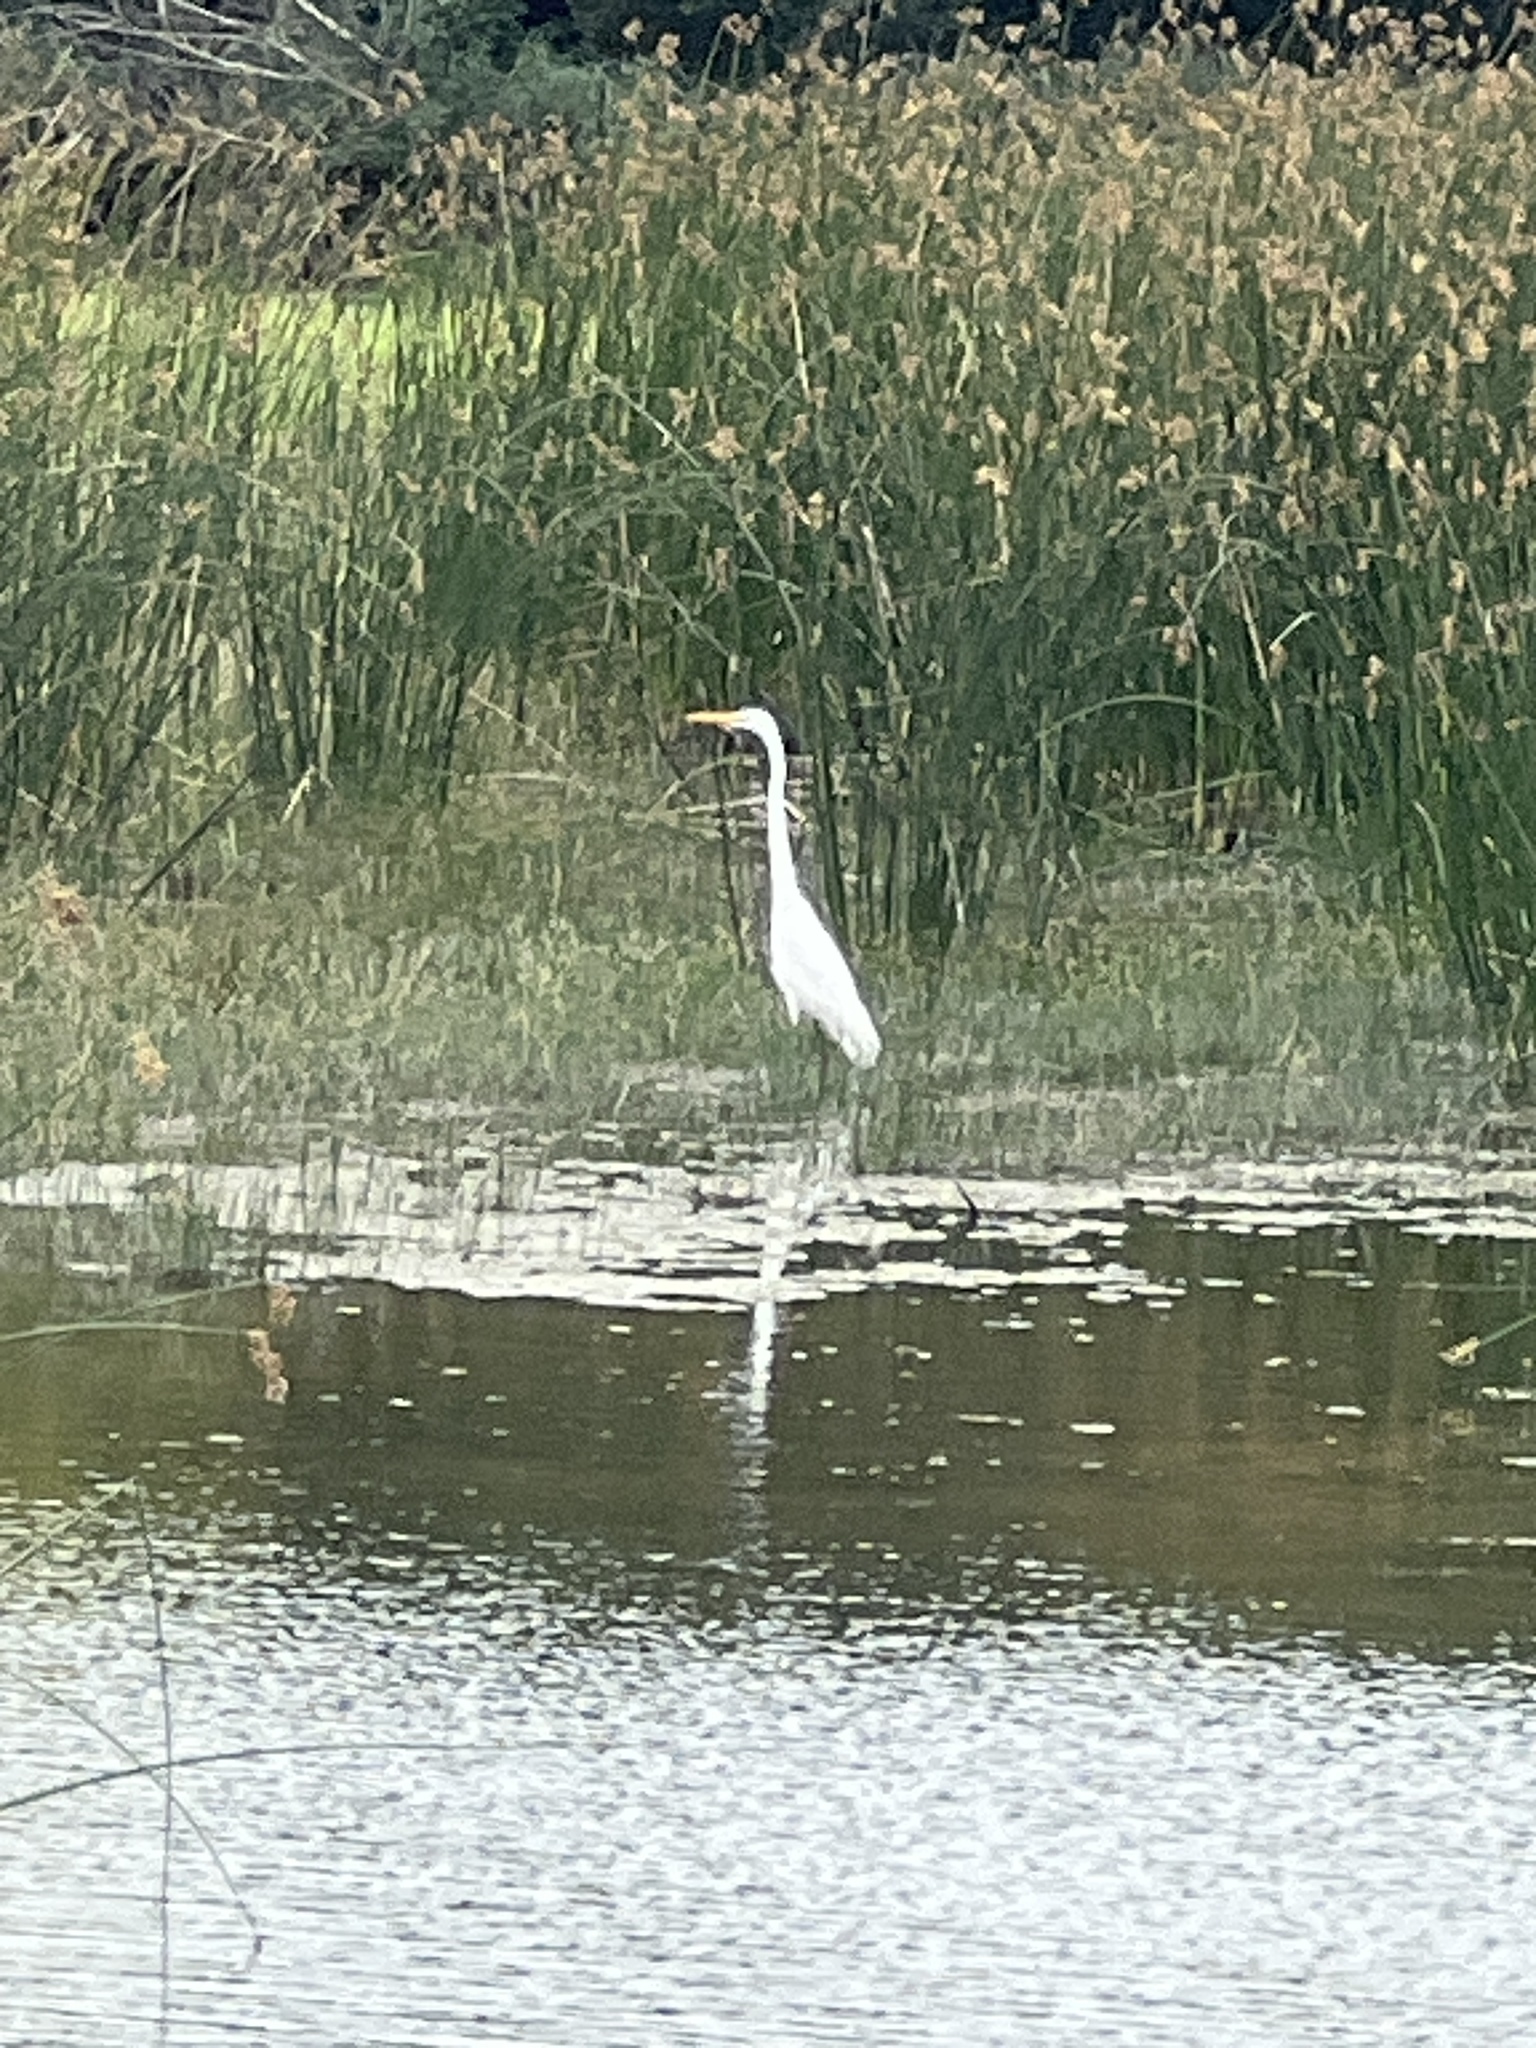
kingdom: Animalia
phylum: Chordata
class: Aves
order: Pelecaniformes
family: Ardeidae
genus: Ardea
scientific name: Ardea alba
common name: Great egret
